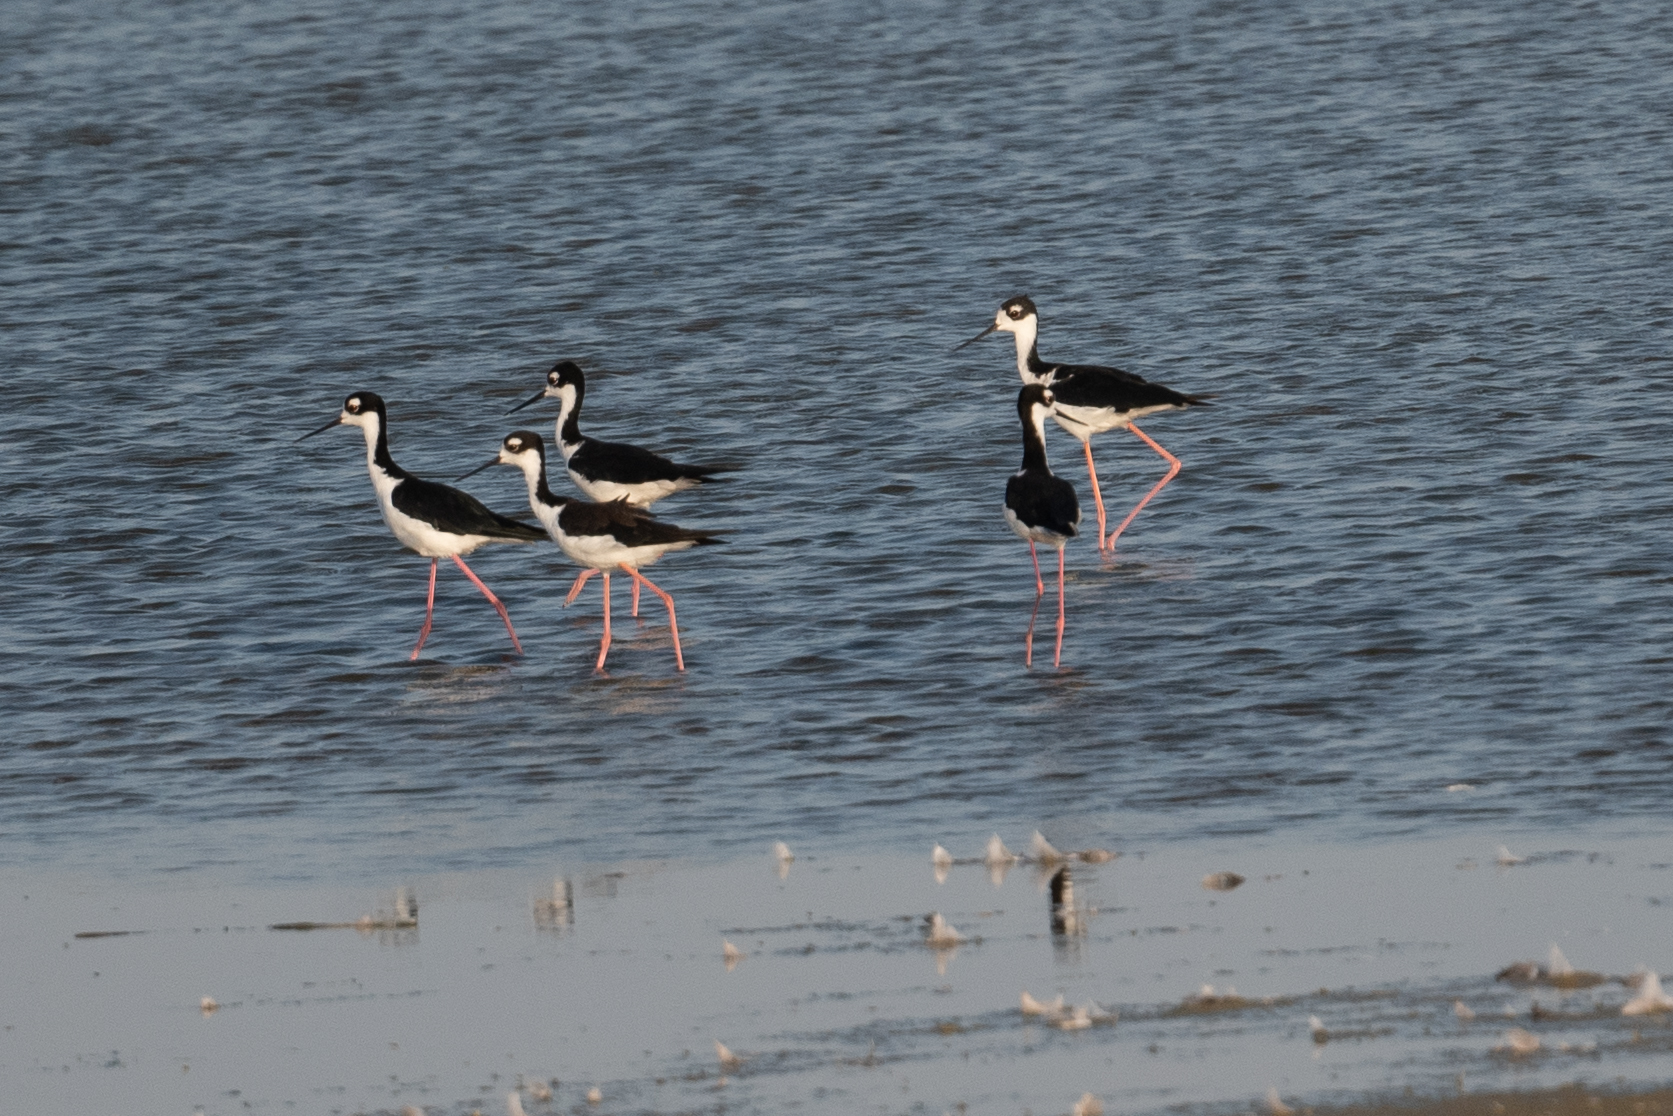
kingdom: Animalia
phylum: Chordata
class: Aves
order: Charadriiformes
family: Recurvirostridae
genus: Himantopus
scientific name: Himantopus mexicanus
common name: Black-necked stilt
